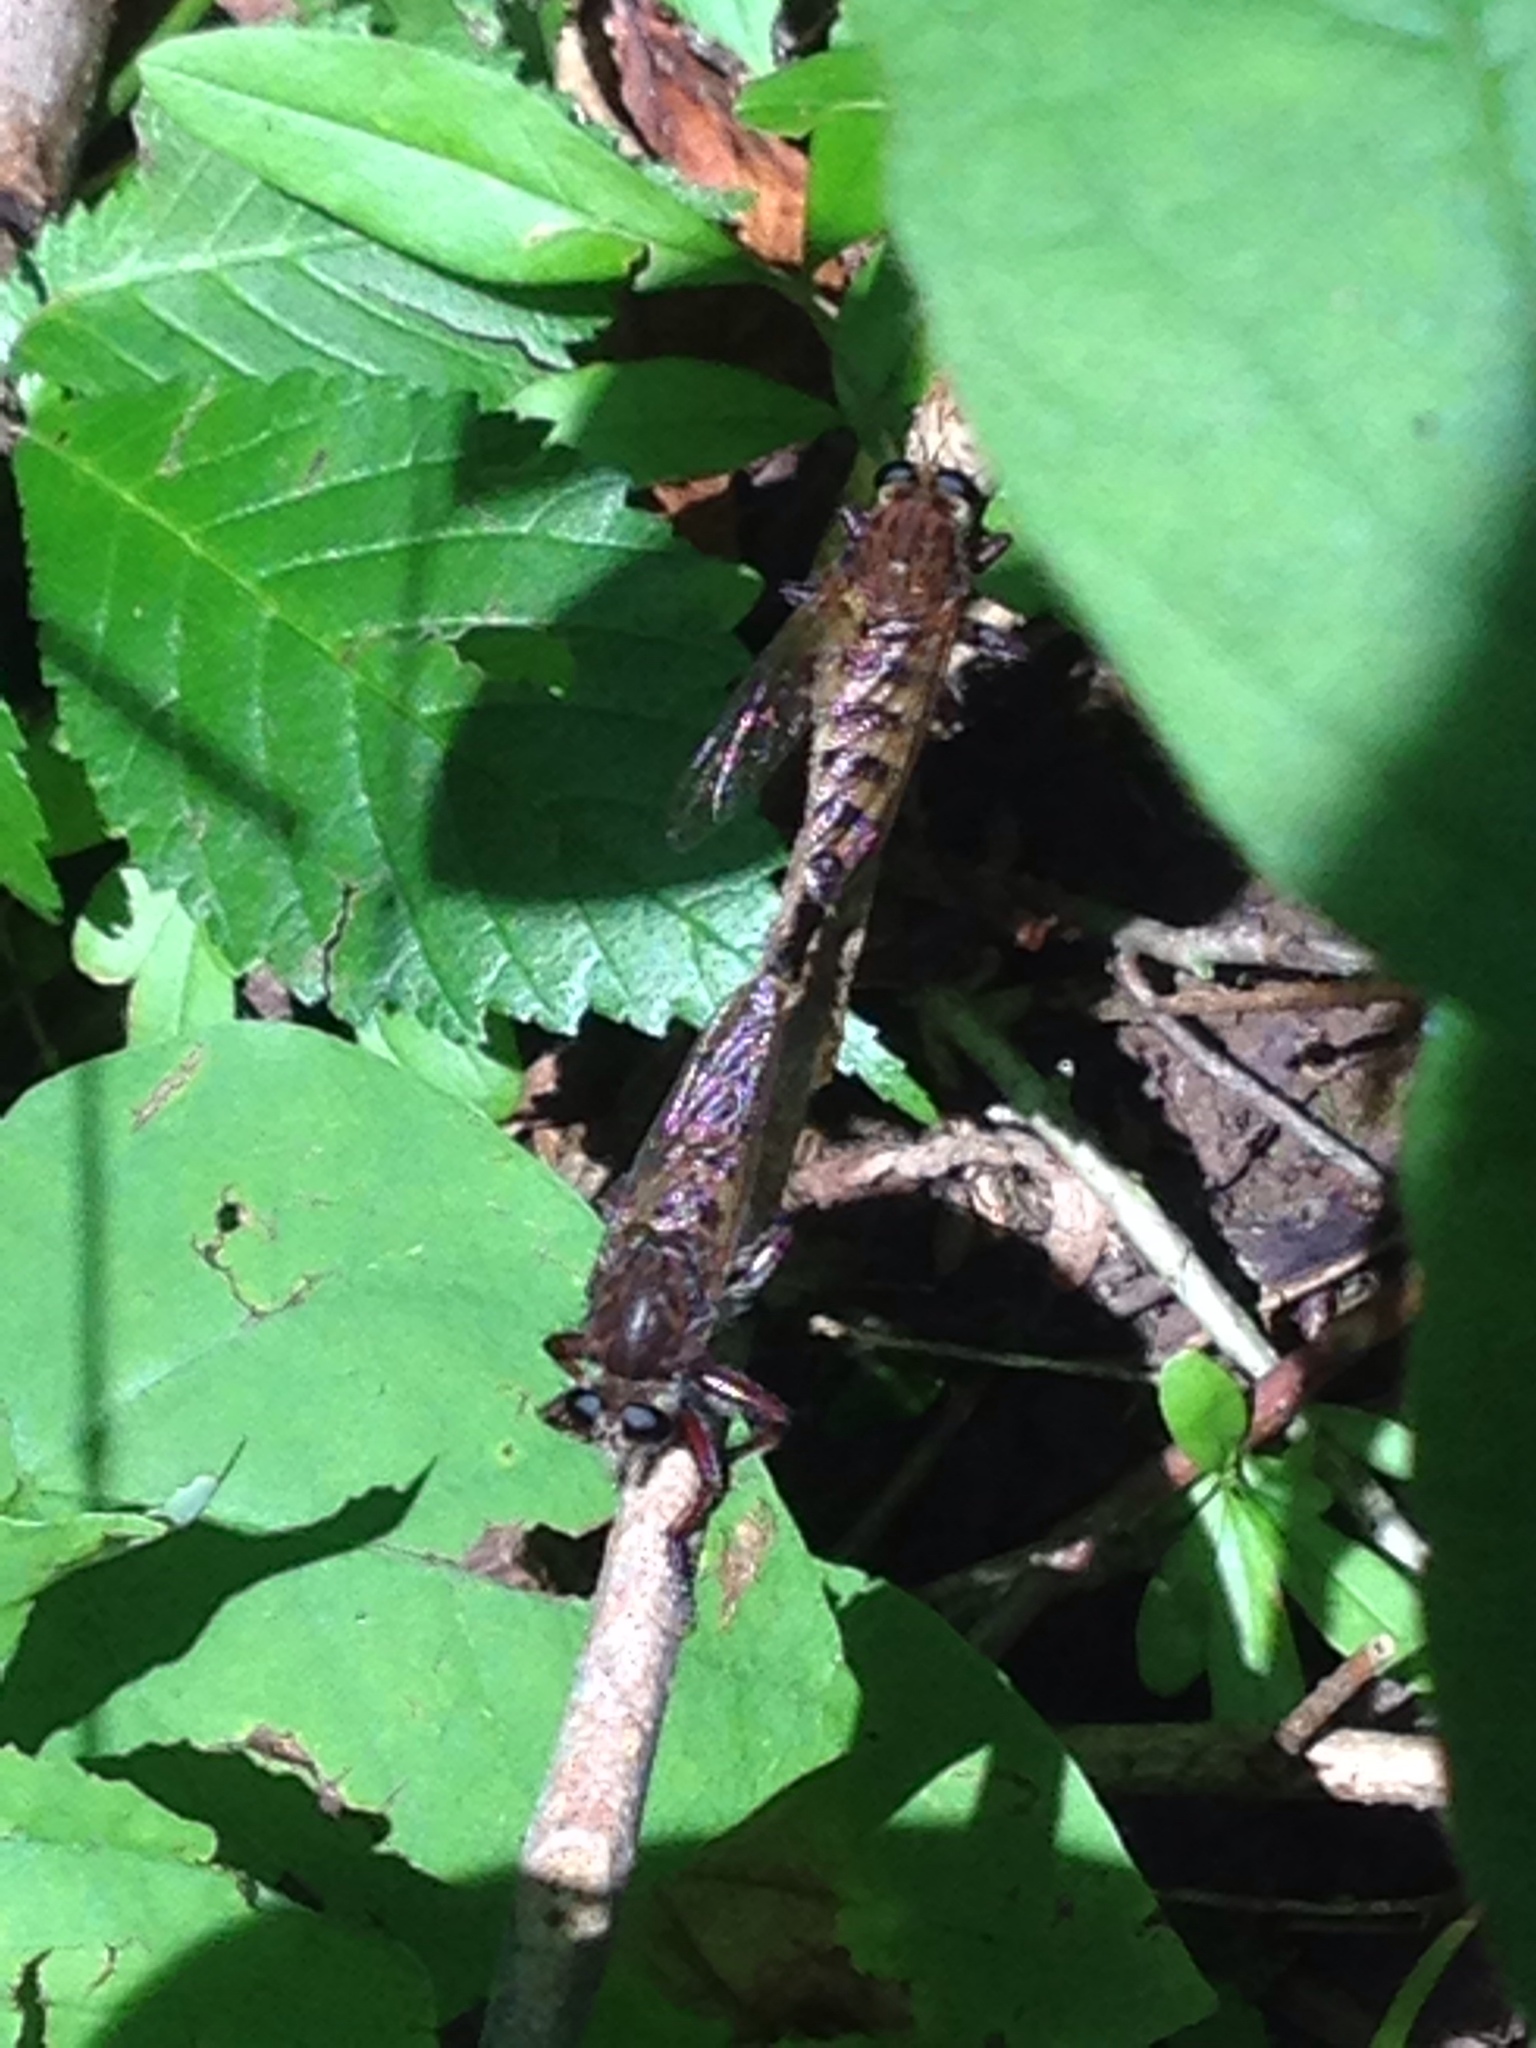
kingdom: Animalia
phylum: Arthropoda
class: Insecta
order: Diptera
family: Asilidae
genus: Promachus
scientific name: Promachus hinei
